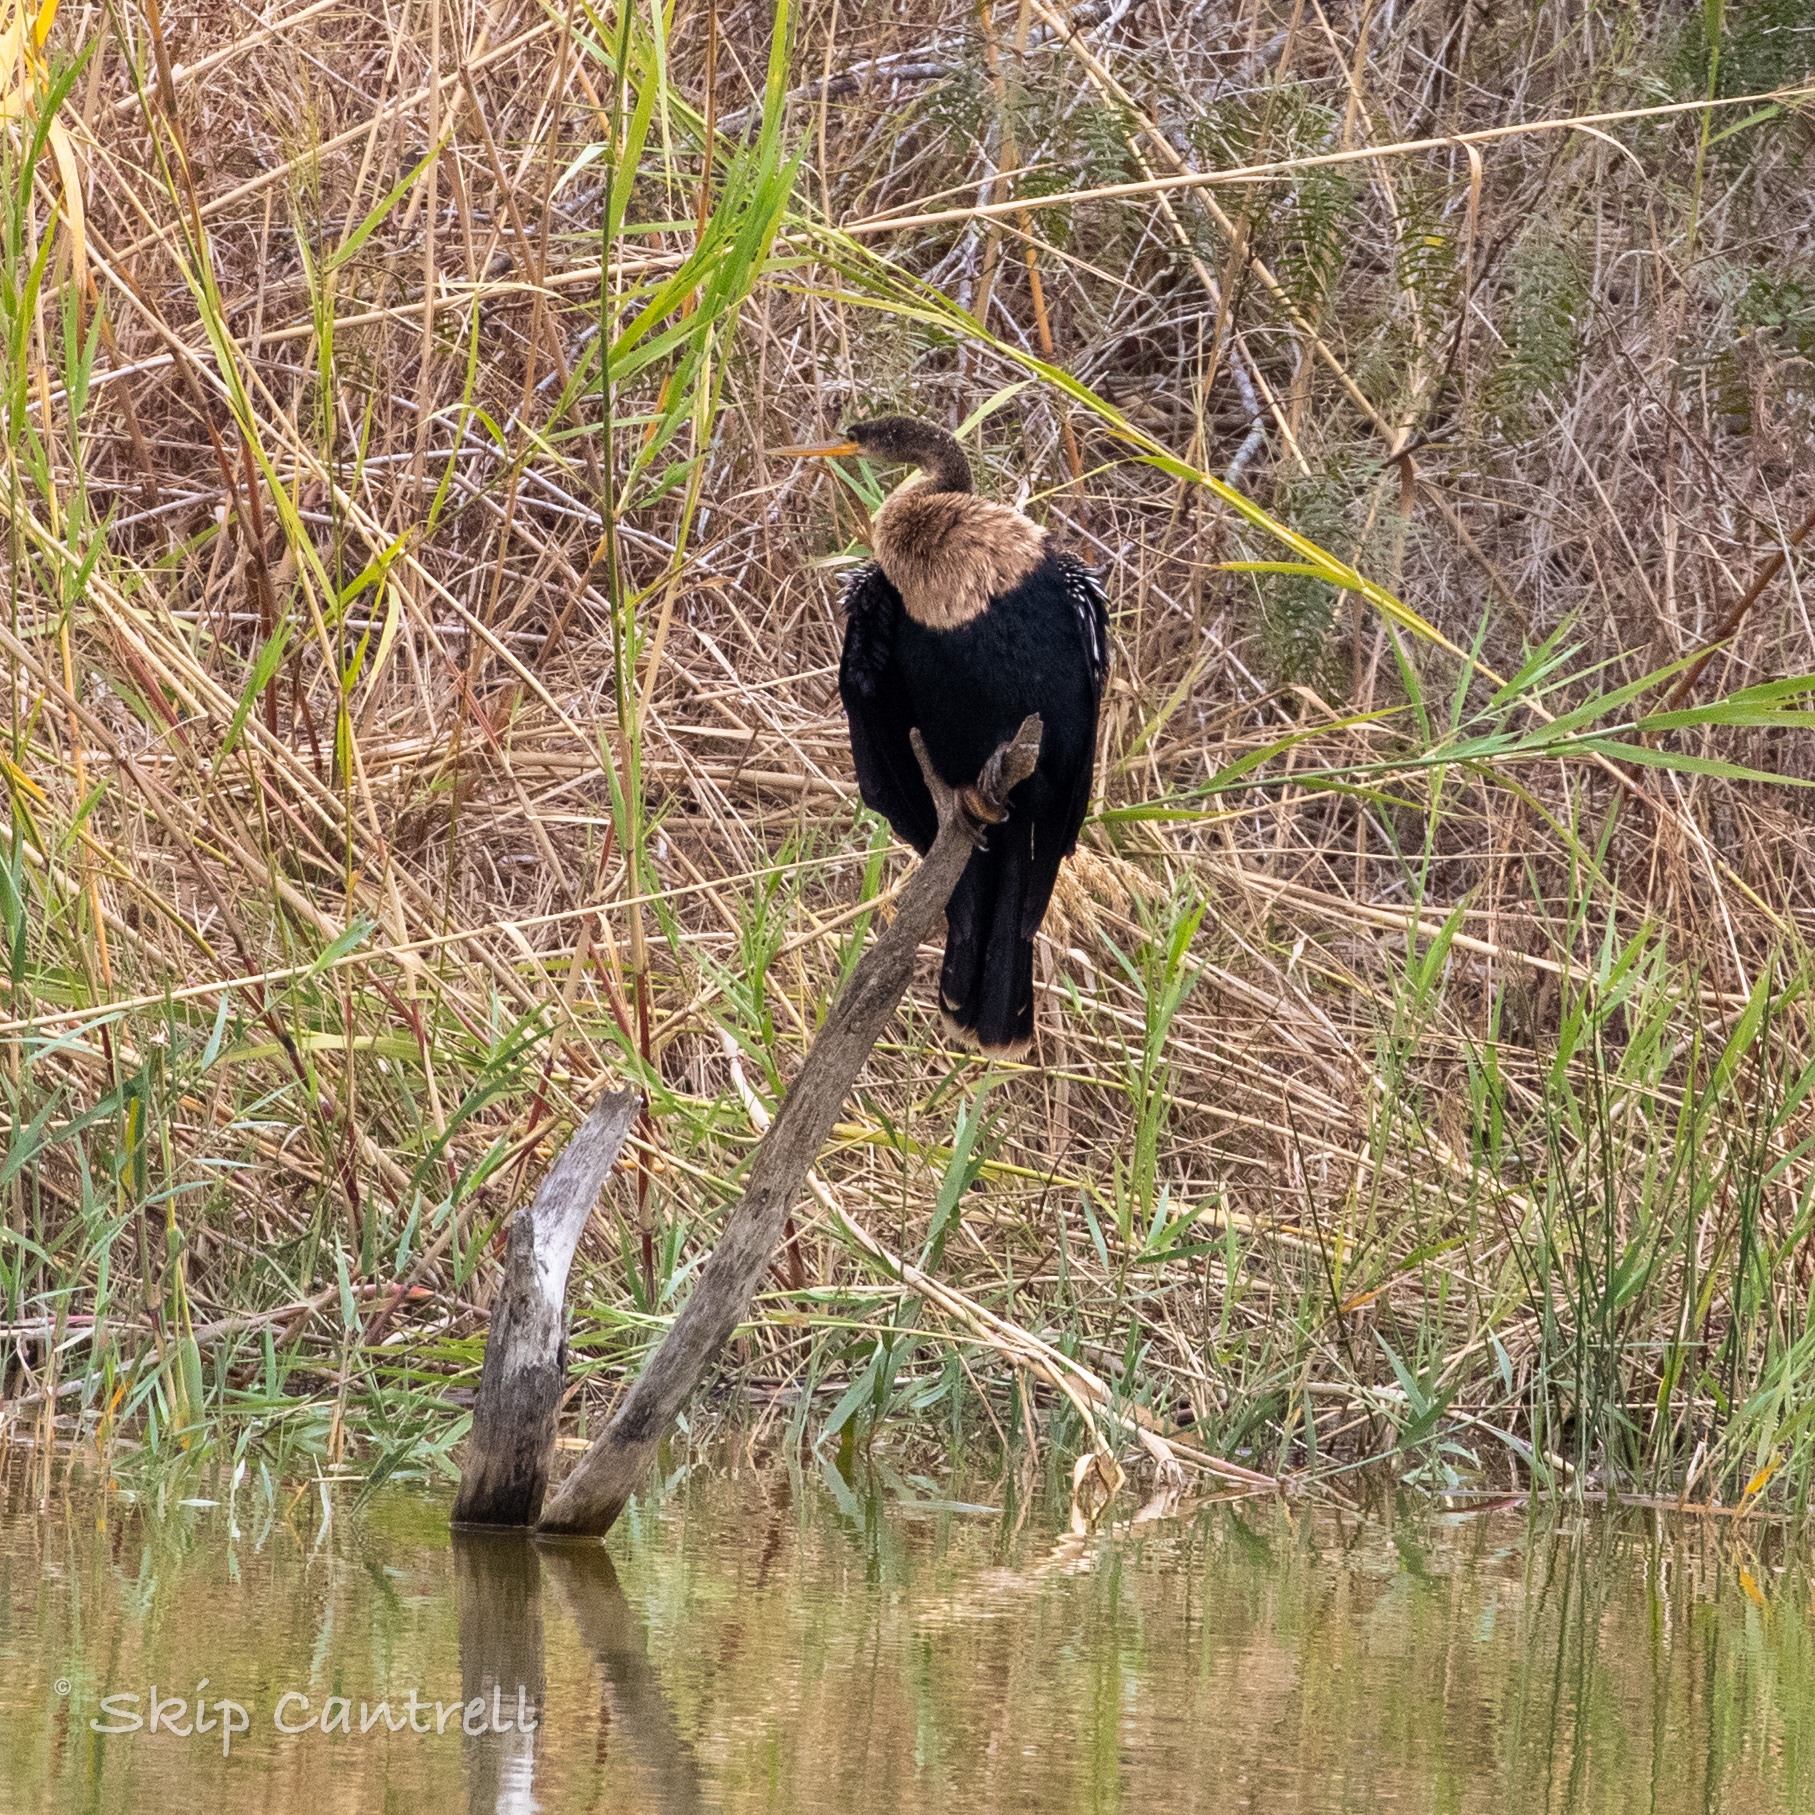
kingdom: Animalia
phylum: Chordata
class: Aves
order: Suliformes
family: Anhingidae
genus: Anhinga
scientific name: Anhinga anhinga
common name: Anhinga
